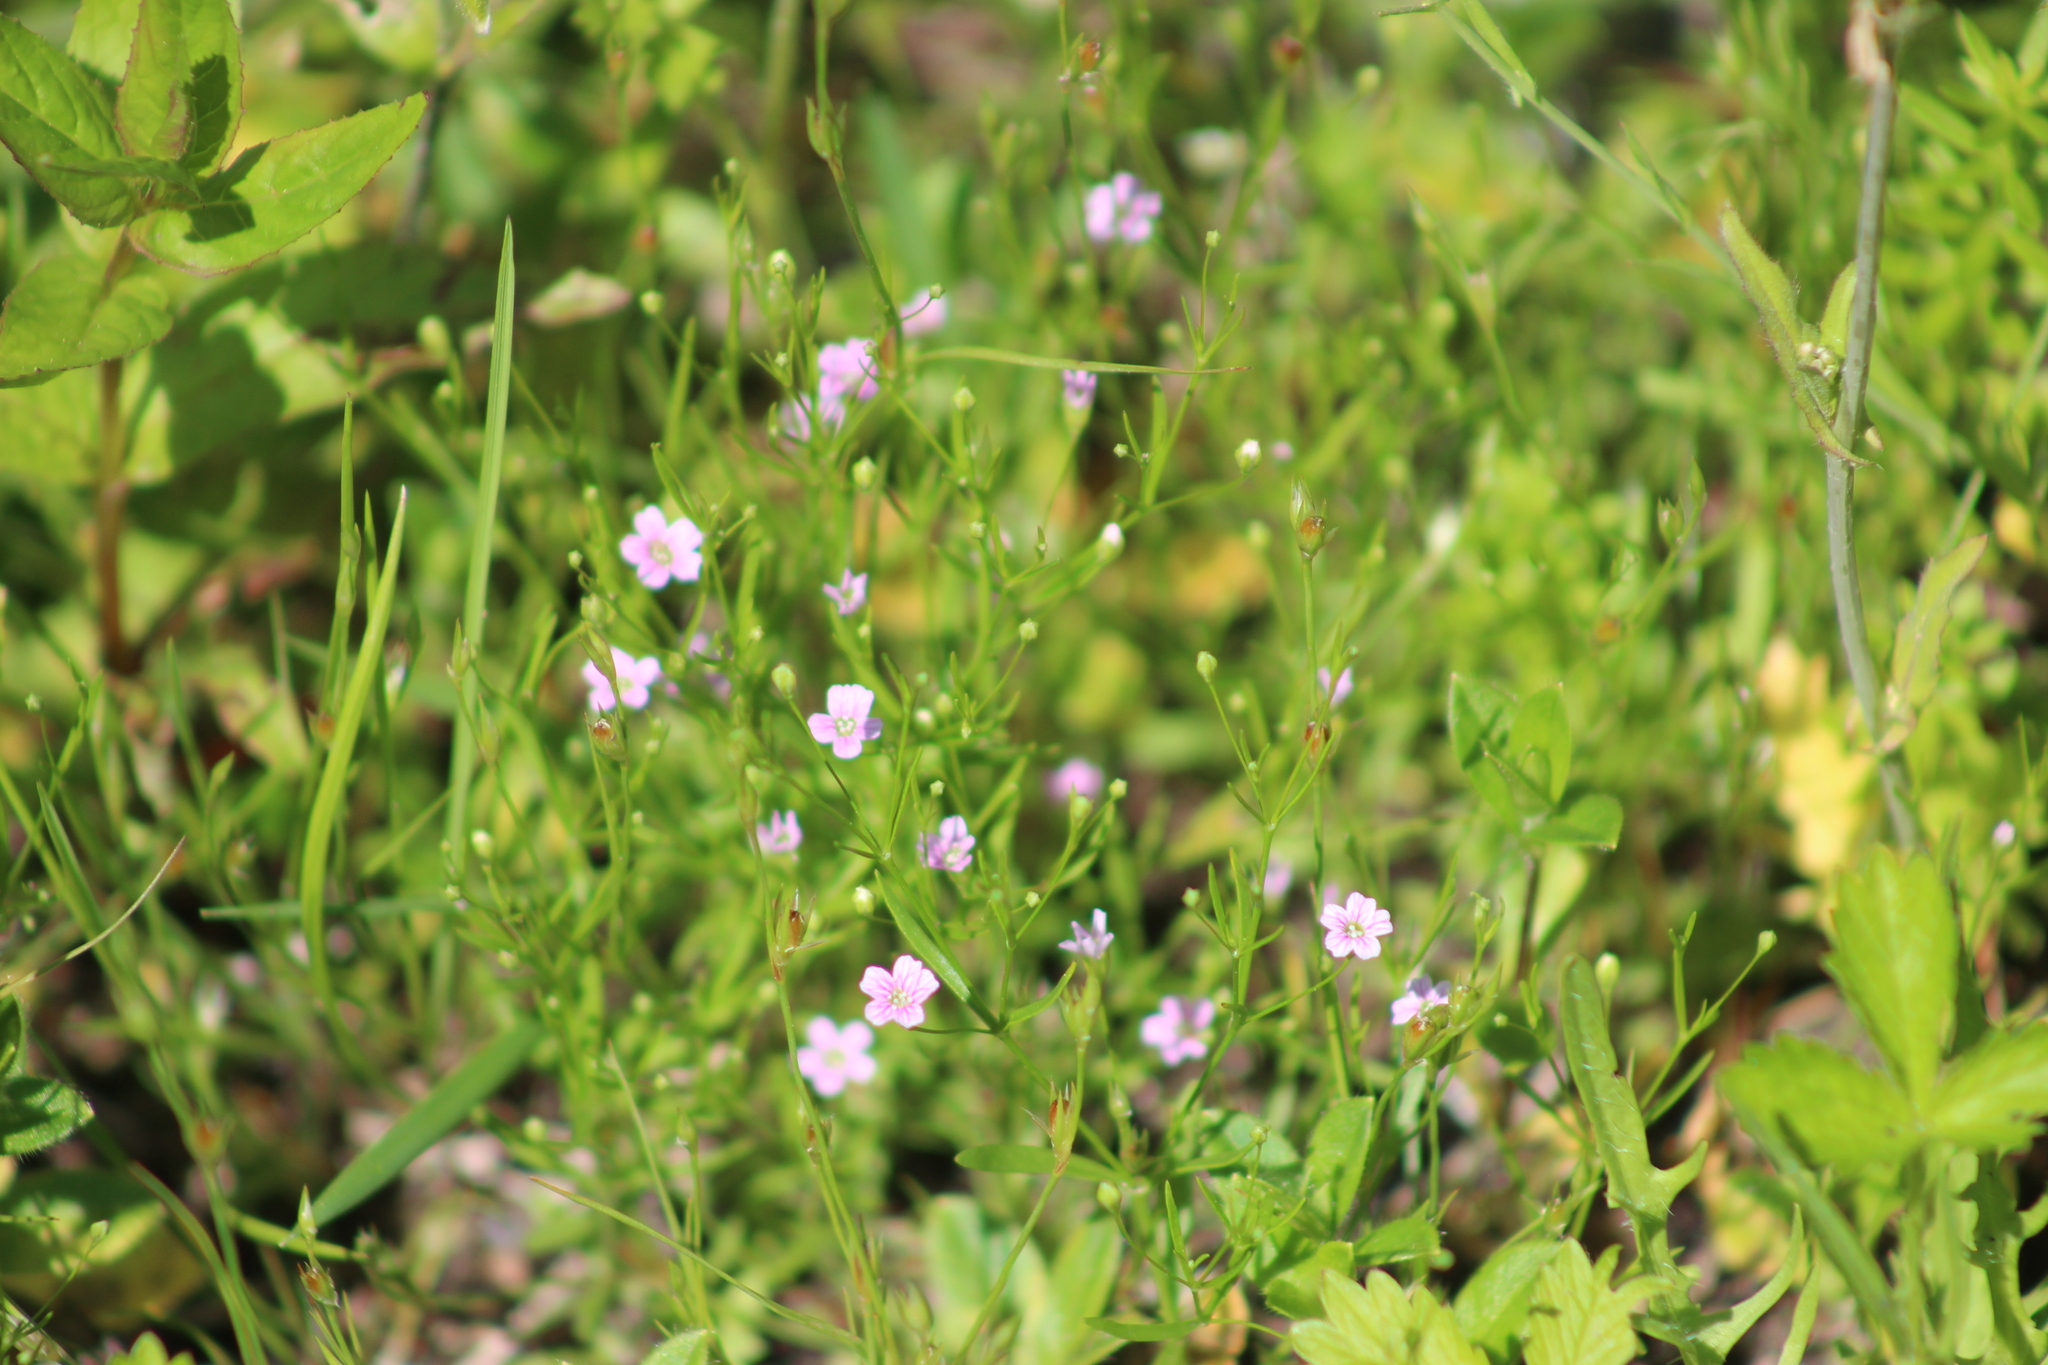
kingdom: Plantae
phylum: Tracheophyta
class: Magnoliopsida
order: Caryophyllales
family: Caryophyllaceae
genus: Psammophiliella
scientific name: Psammophiliella muralis
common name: Cushion baby's-breath
